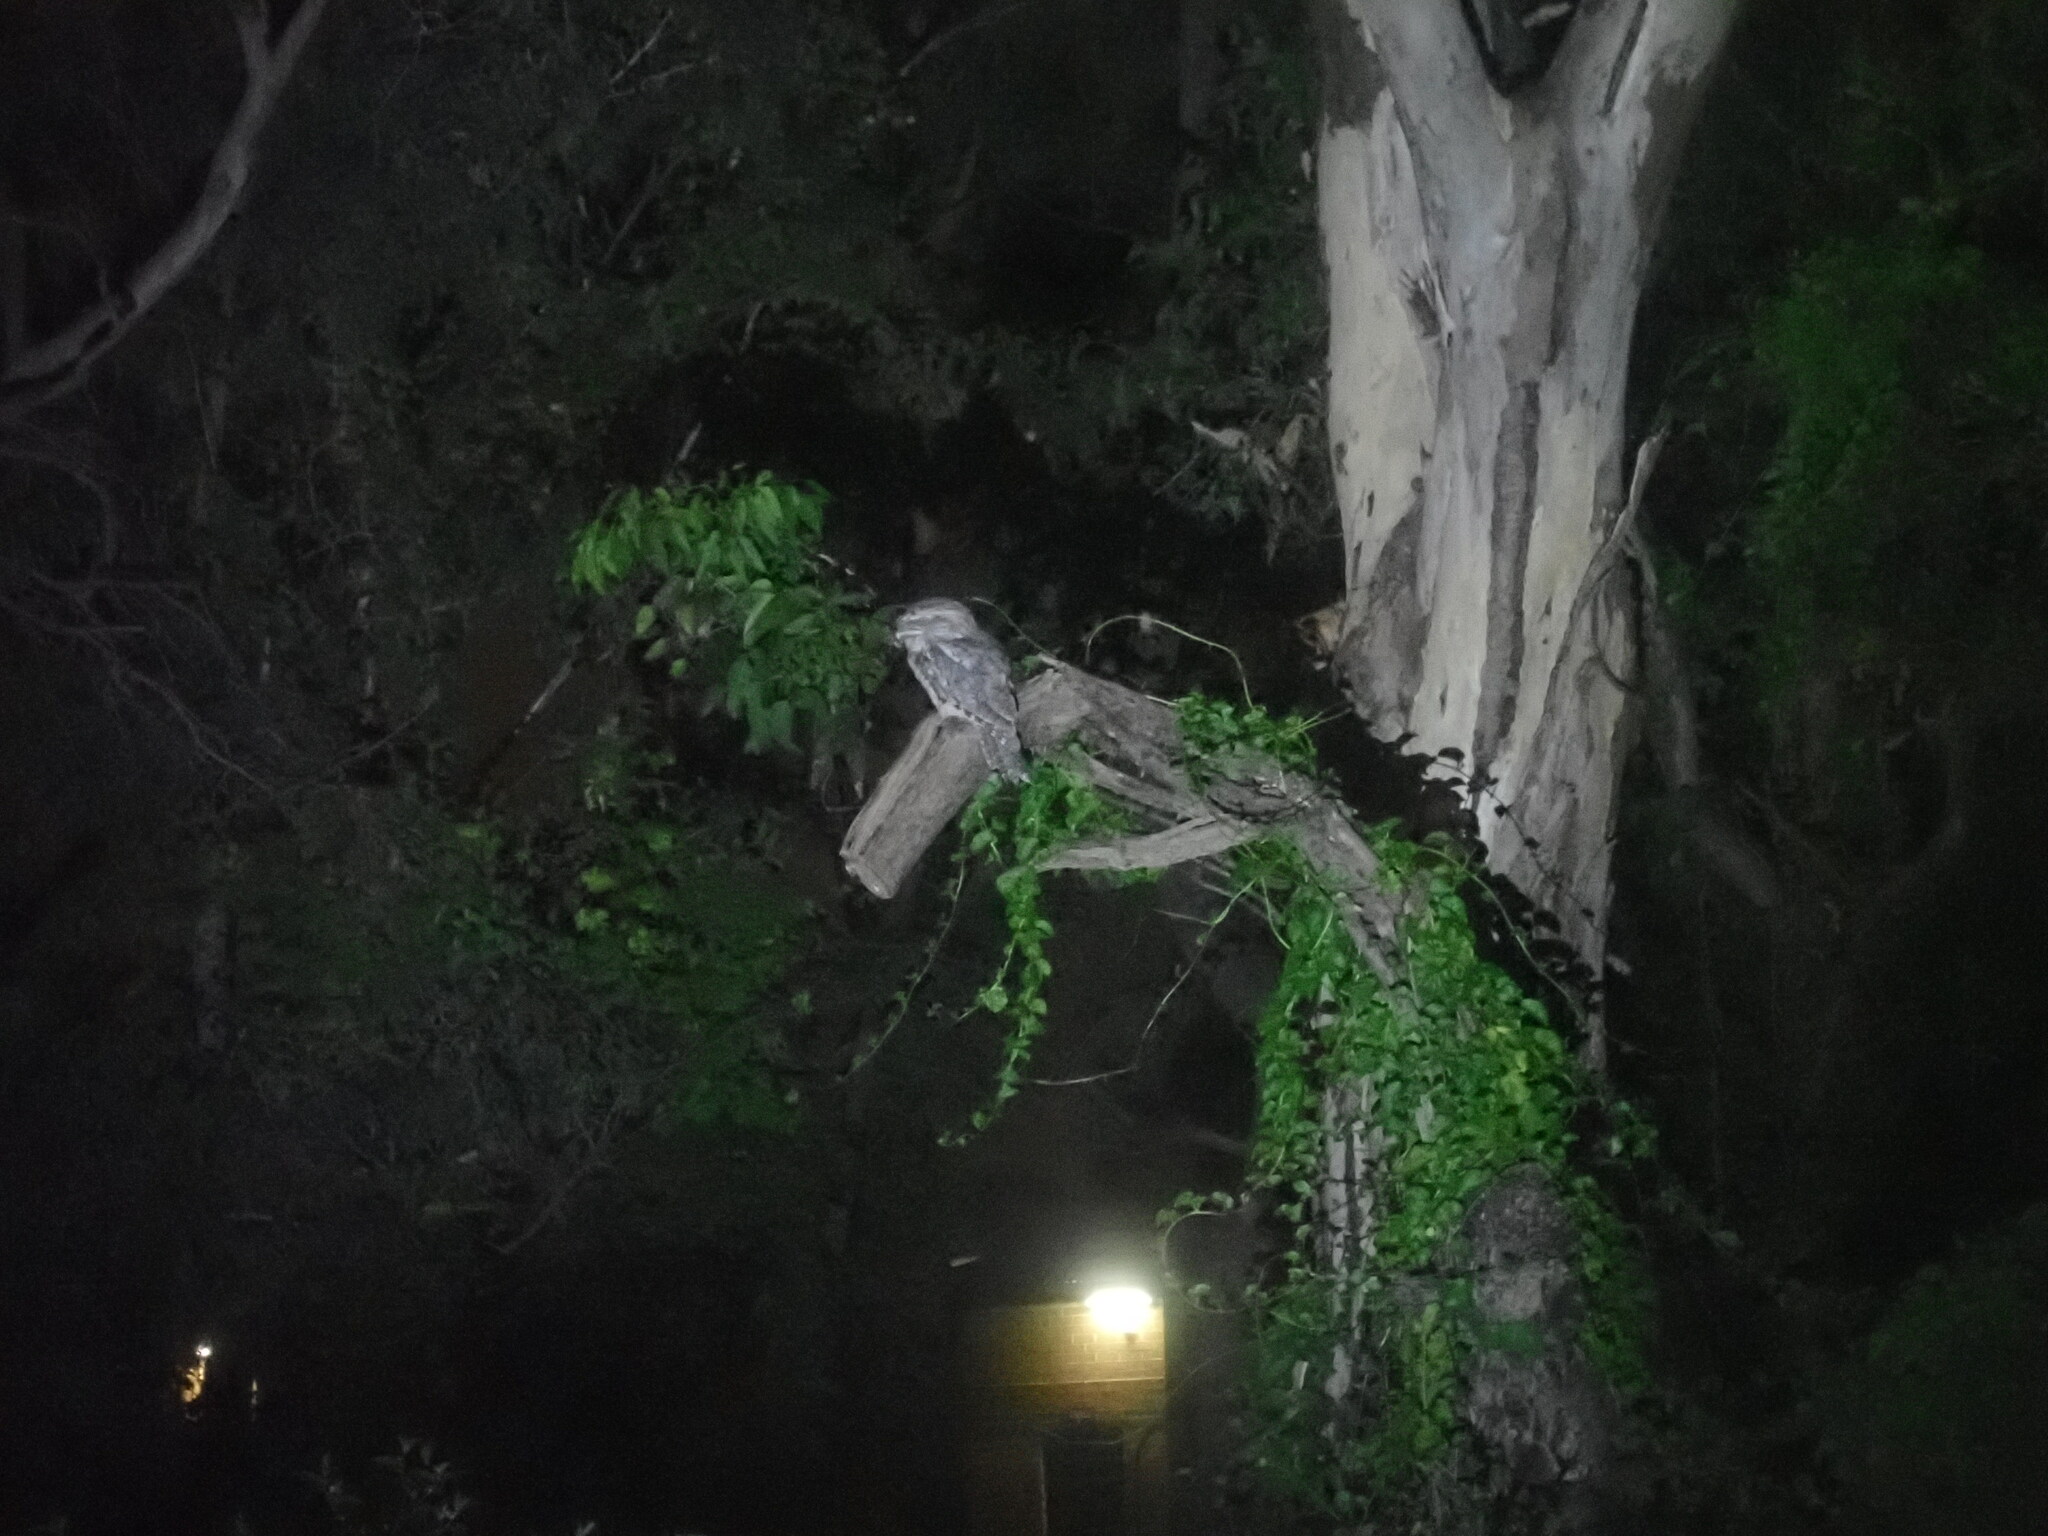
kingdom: Animalia
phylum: Chordata
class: Aves
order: Caprimulgiformes
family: Podargidae
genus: Podargus
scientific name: Podargus strigoides
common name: Tawny frogmouth
